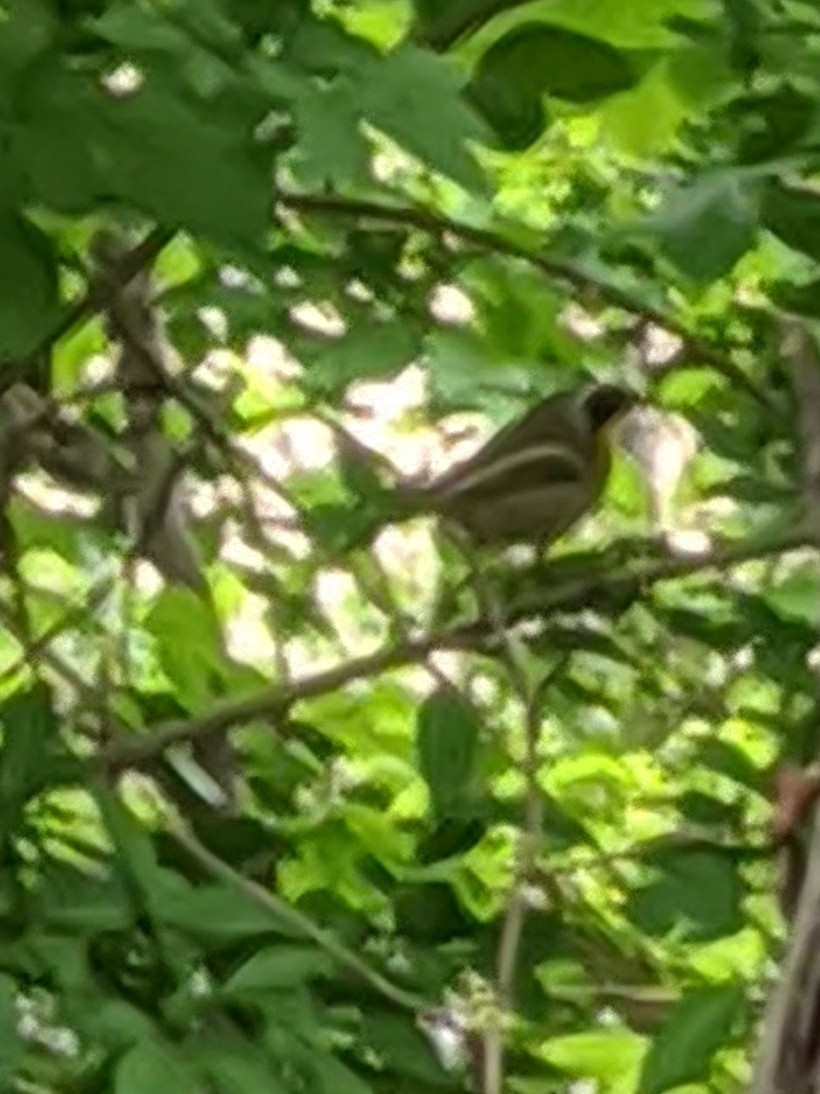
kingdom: Animalia
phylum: Chordata
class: Aves
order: Passeriformes
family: Parulidae
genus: Geothlypis
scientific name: Geothlypis trichas
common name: Common yellowthroat
